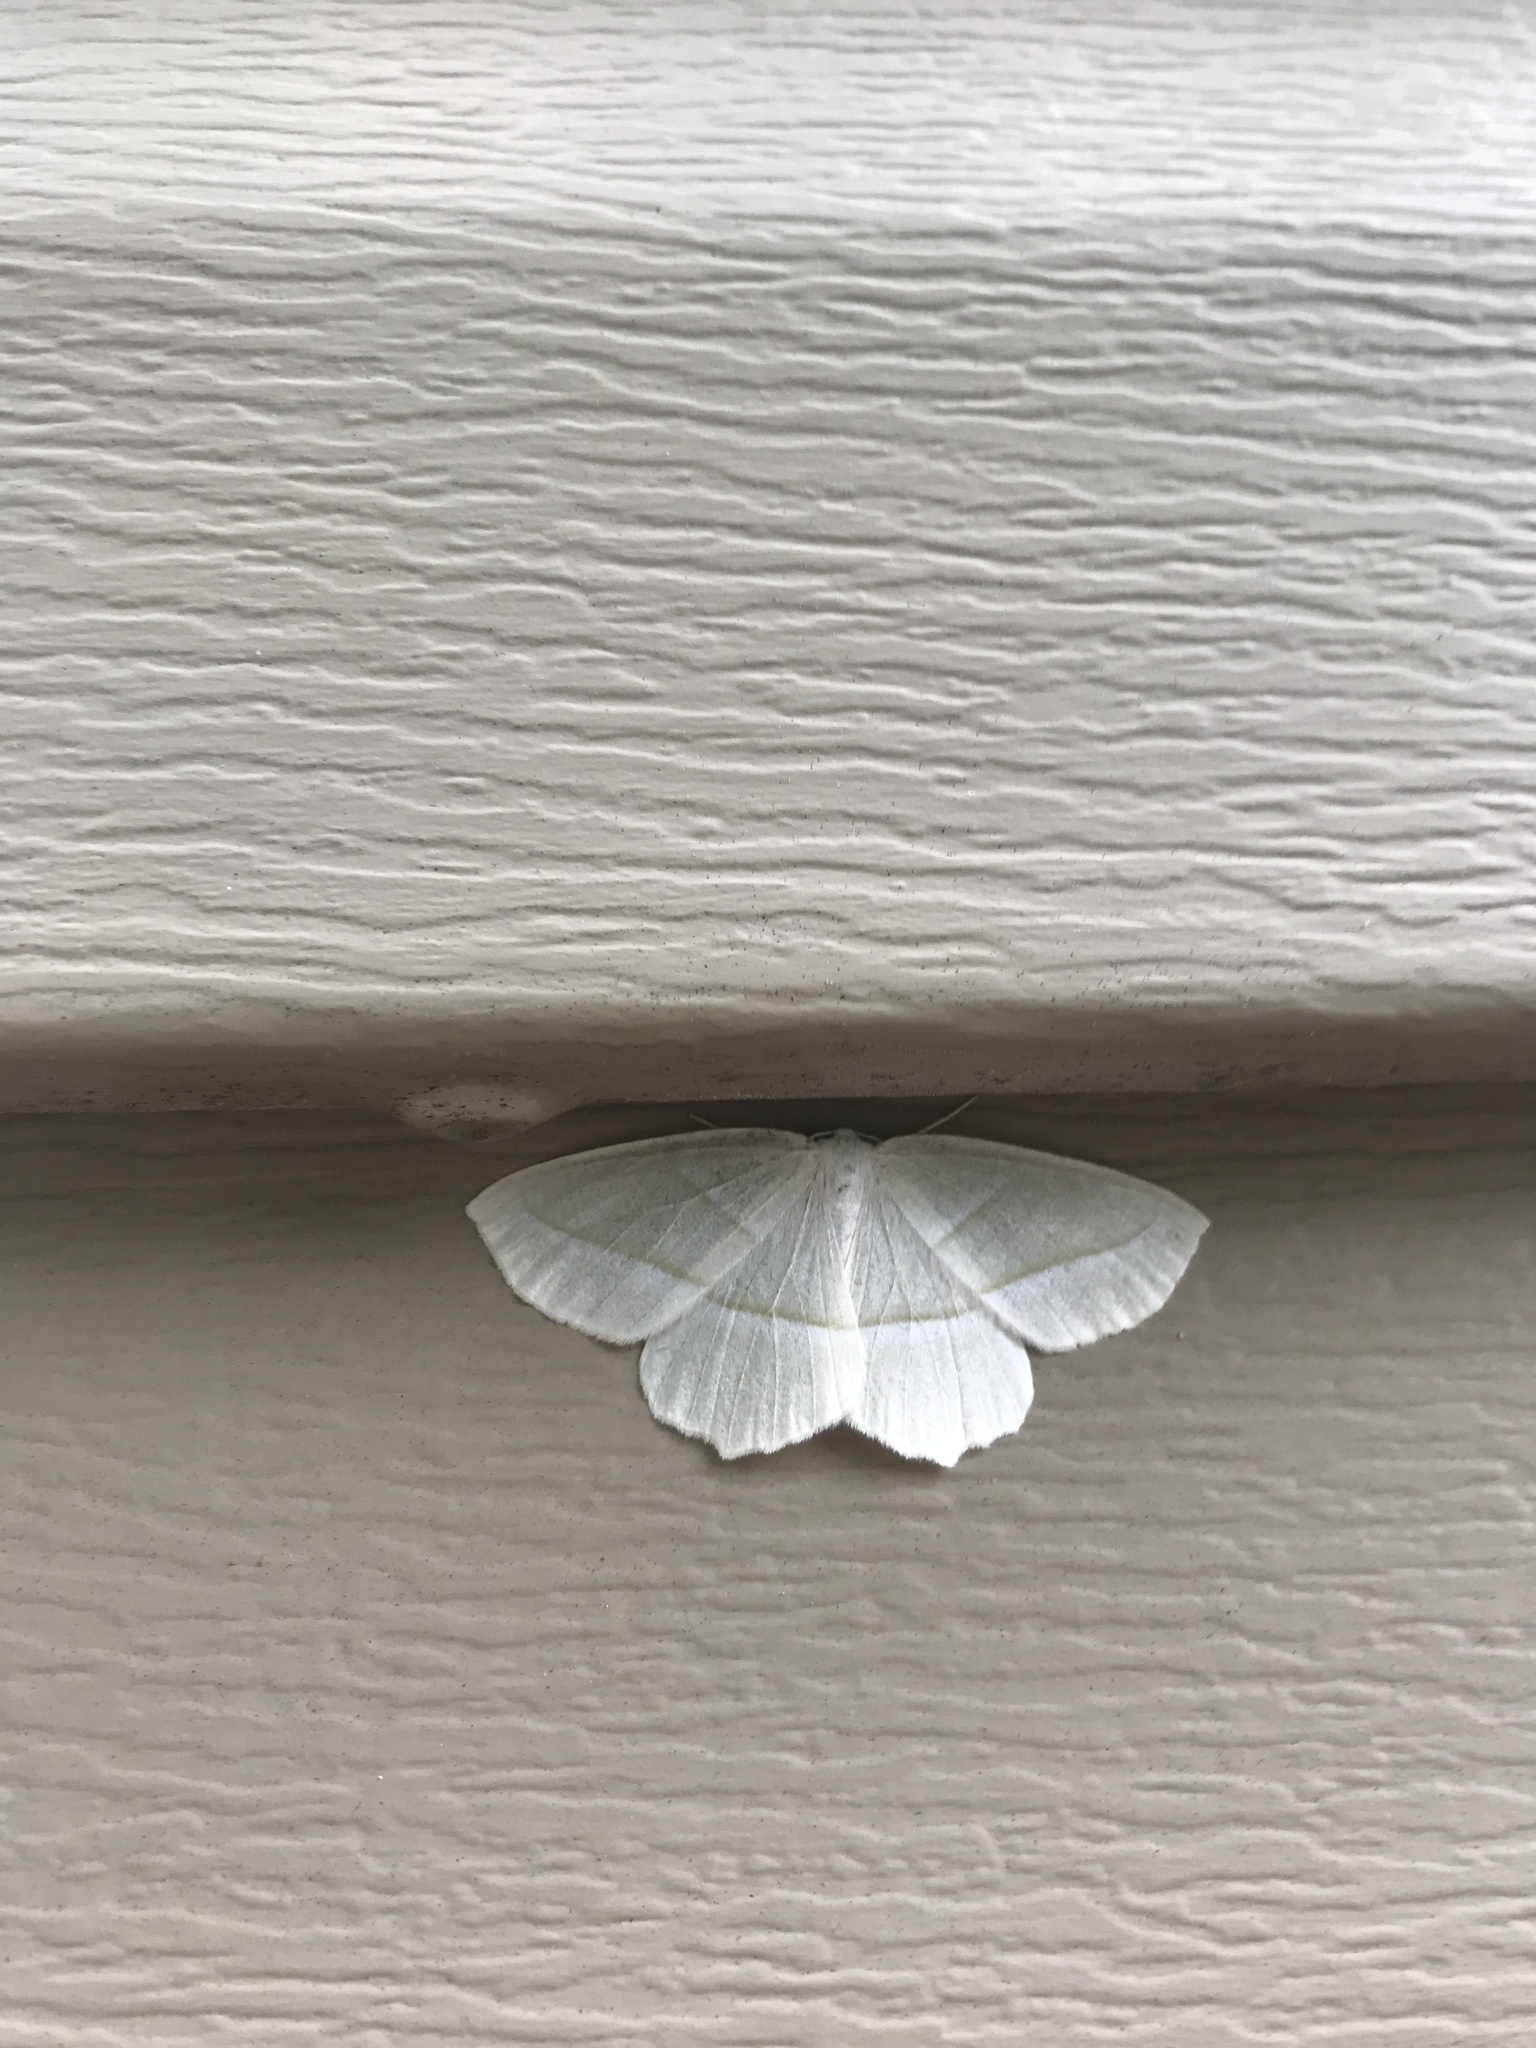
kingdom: Animalia
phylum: Arthropoda
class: Insecta
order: Lepidoptera
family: Geometridae
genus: Campaea
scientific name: Campaea perlata
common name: Fringed looper
